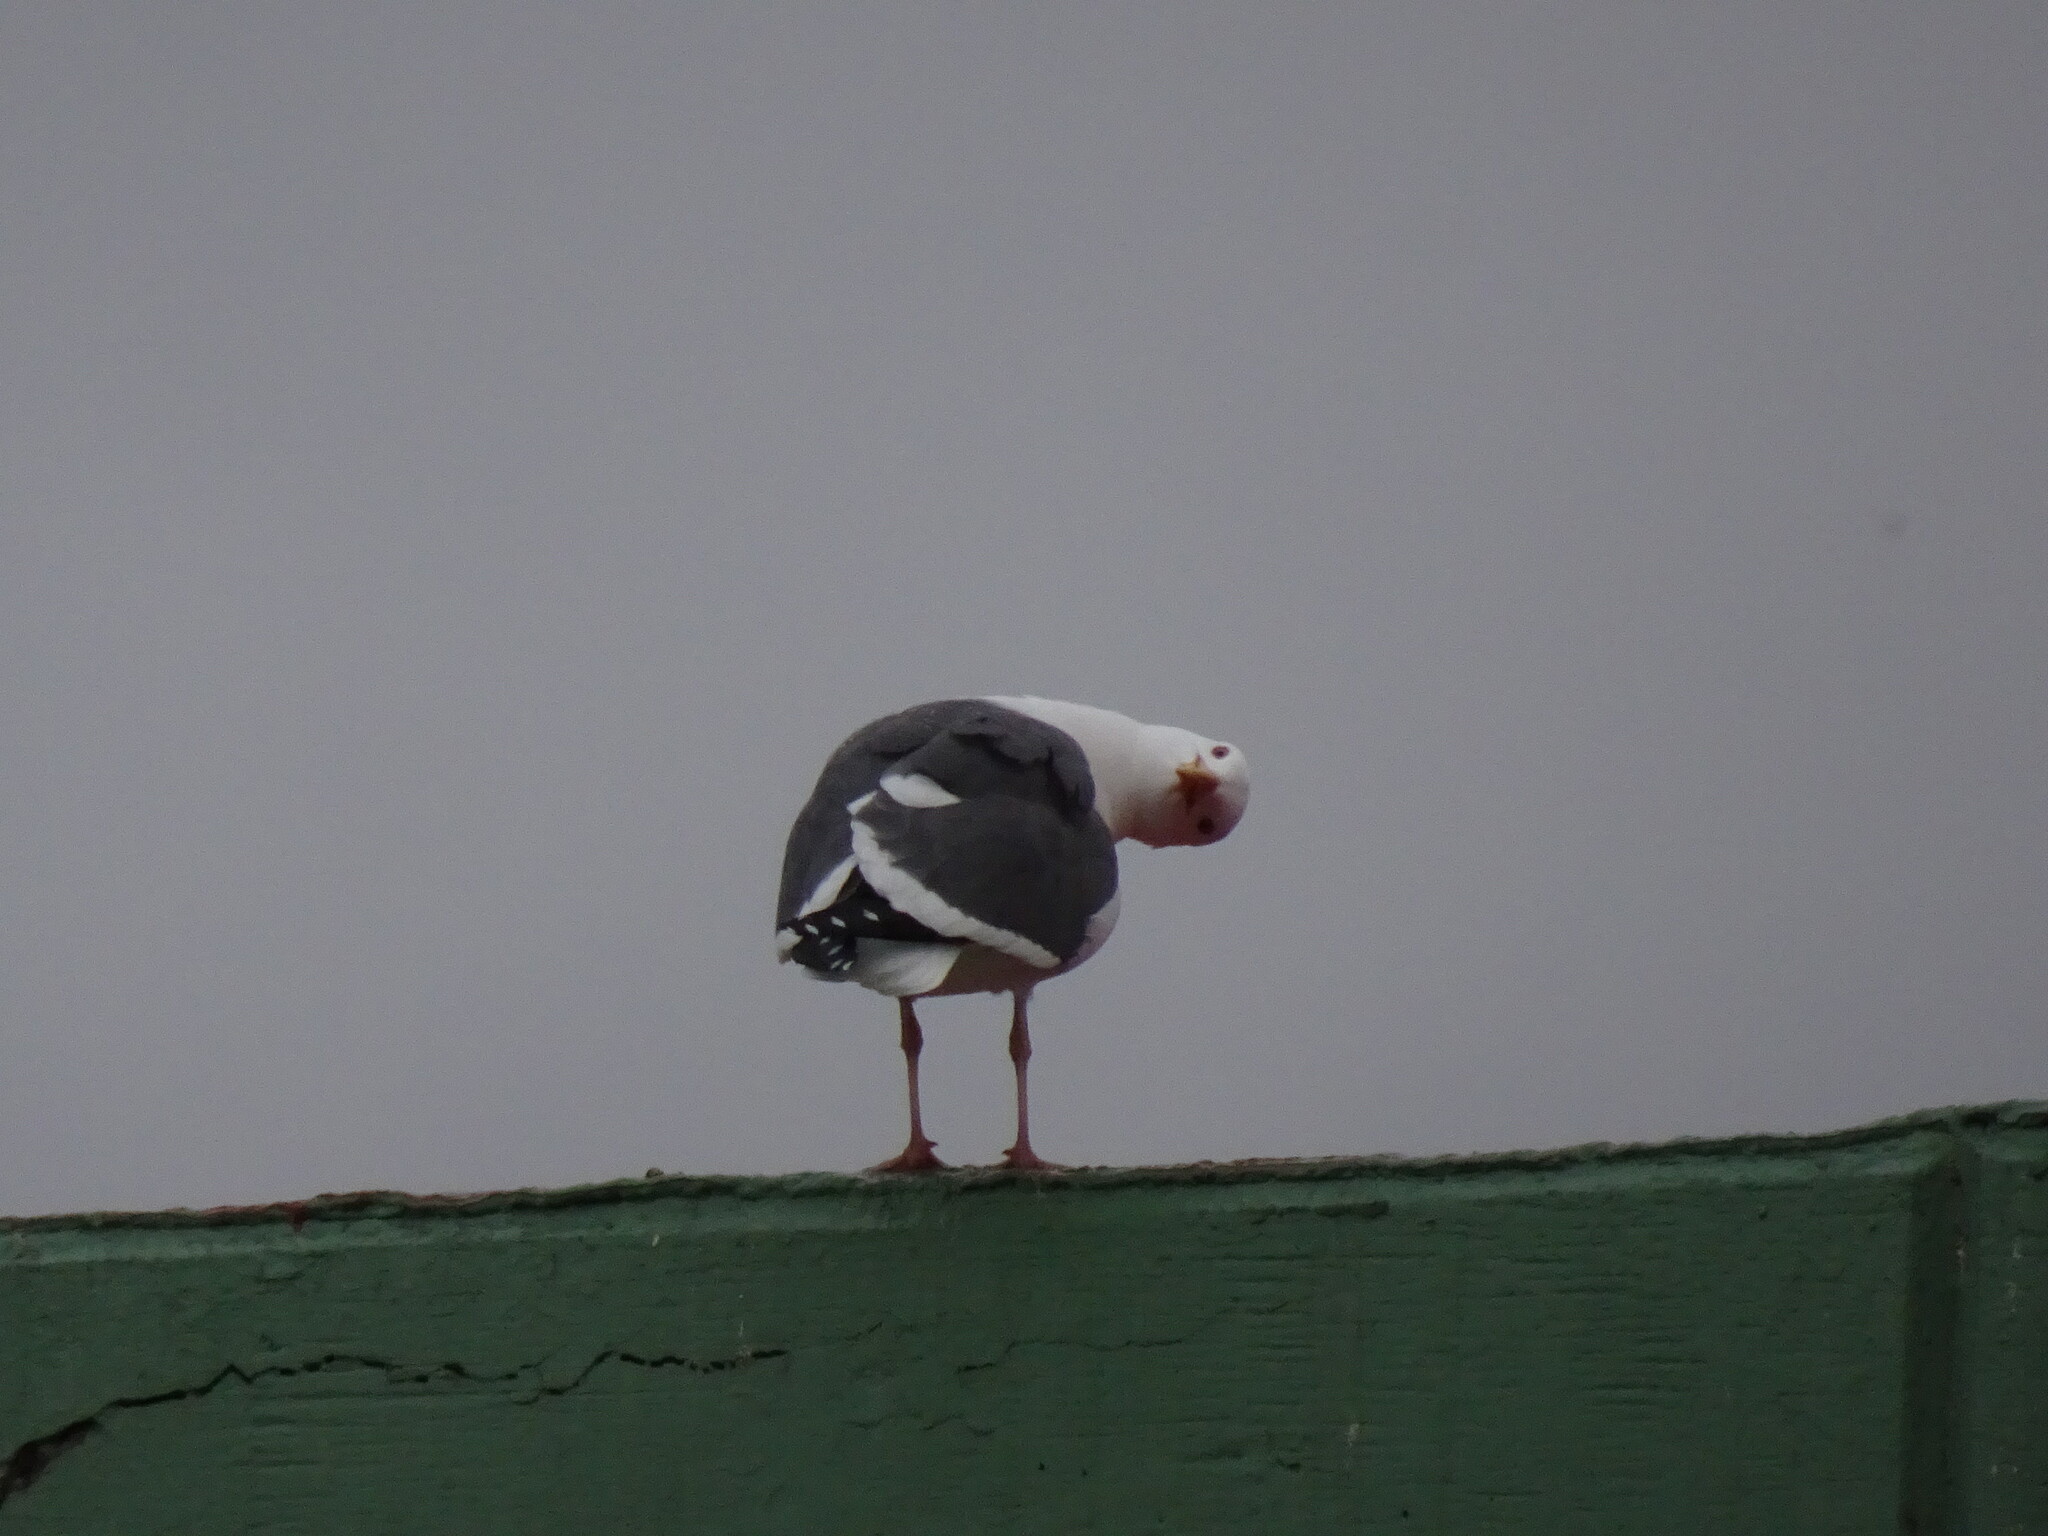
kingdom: Animalia
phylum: Chordata
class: Aves
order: Charadriiformes
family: Laridae
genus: Larus
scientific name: Larus occidentalis
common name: Western gull
